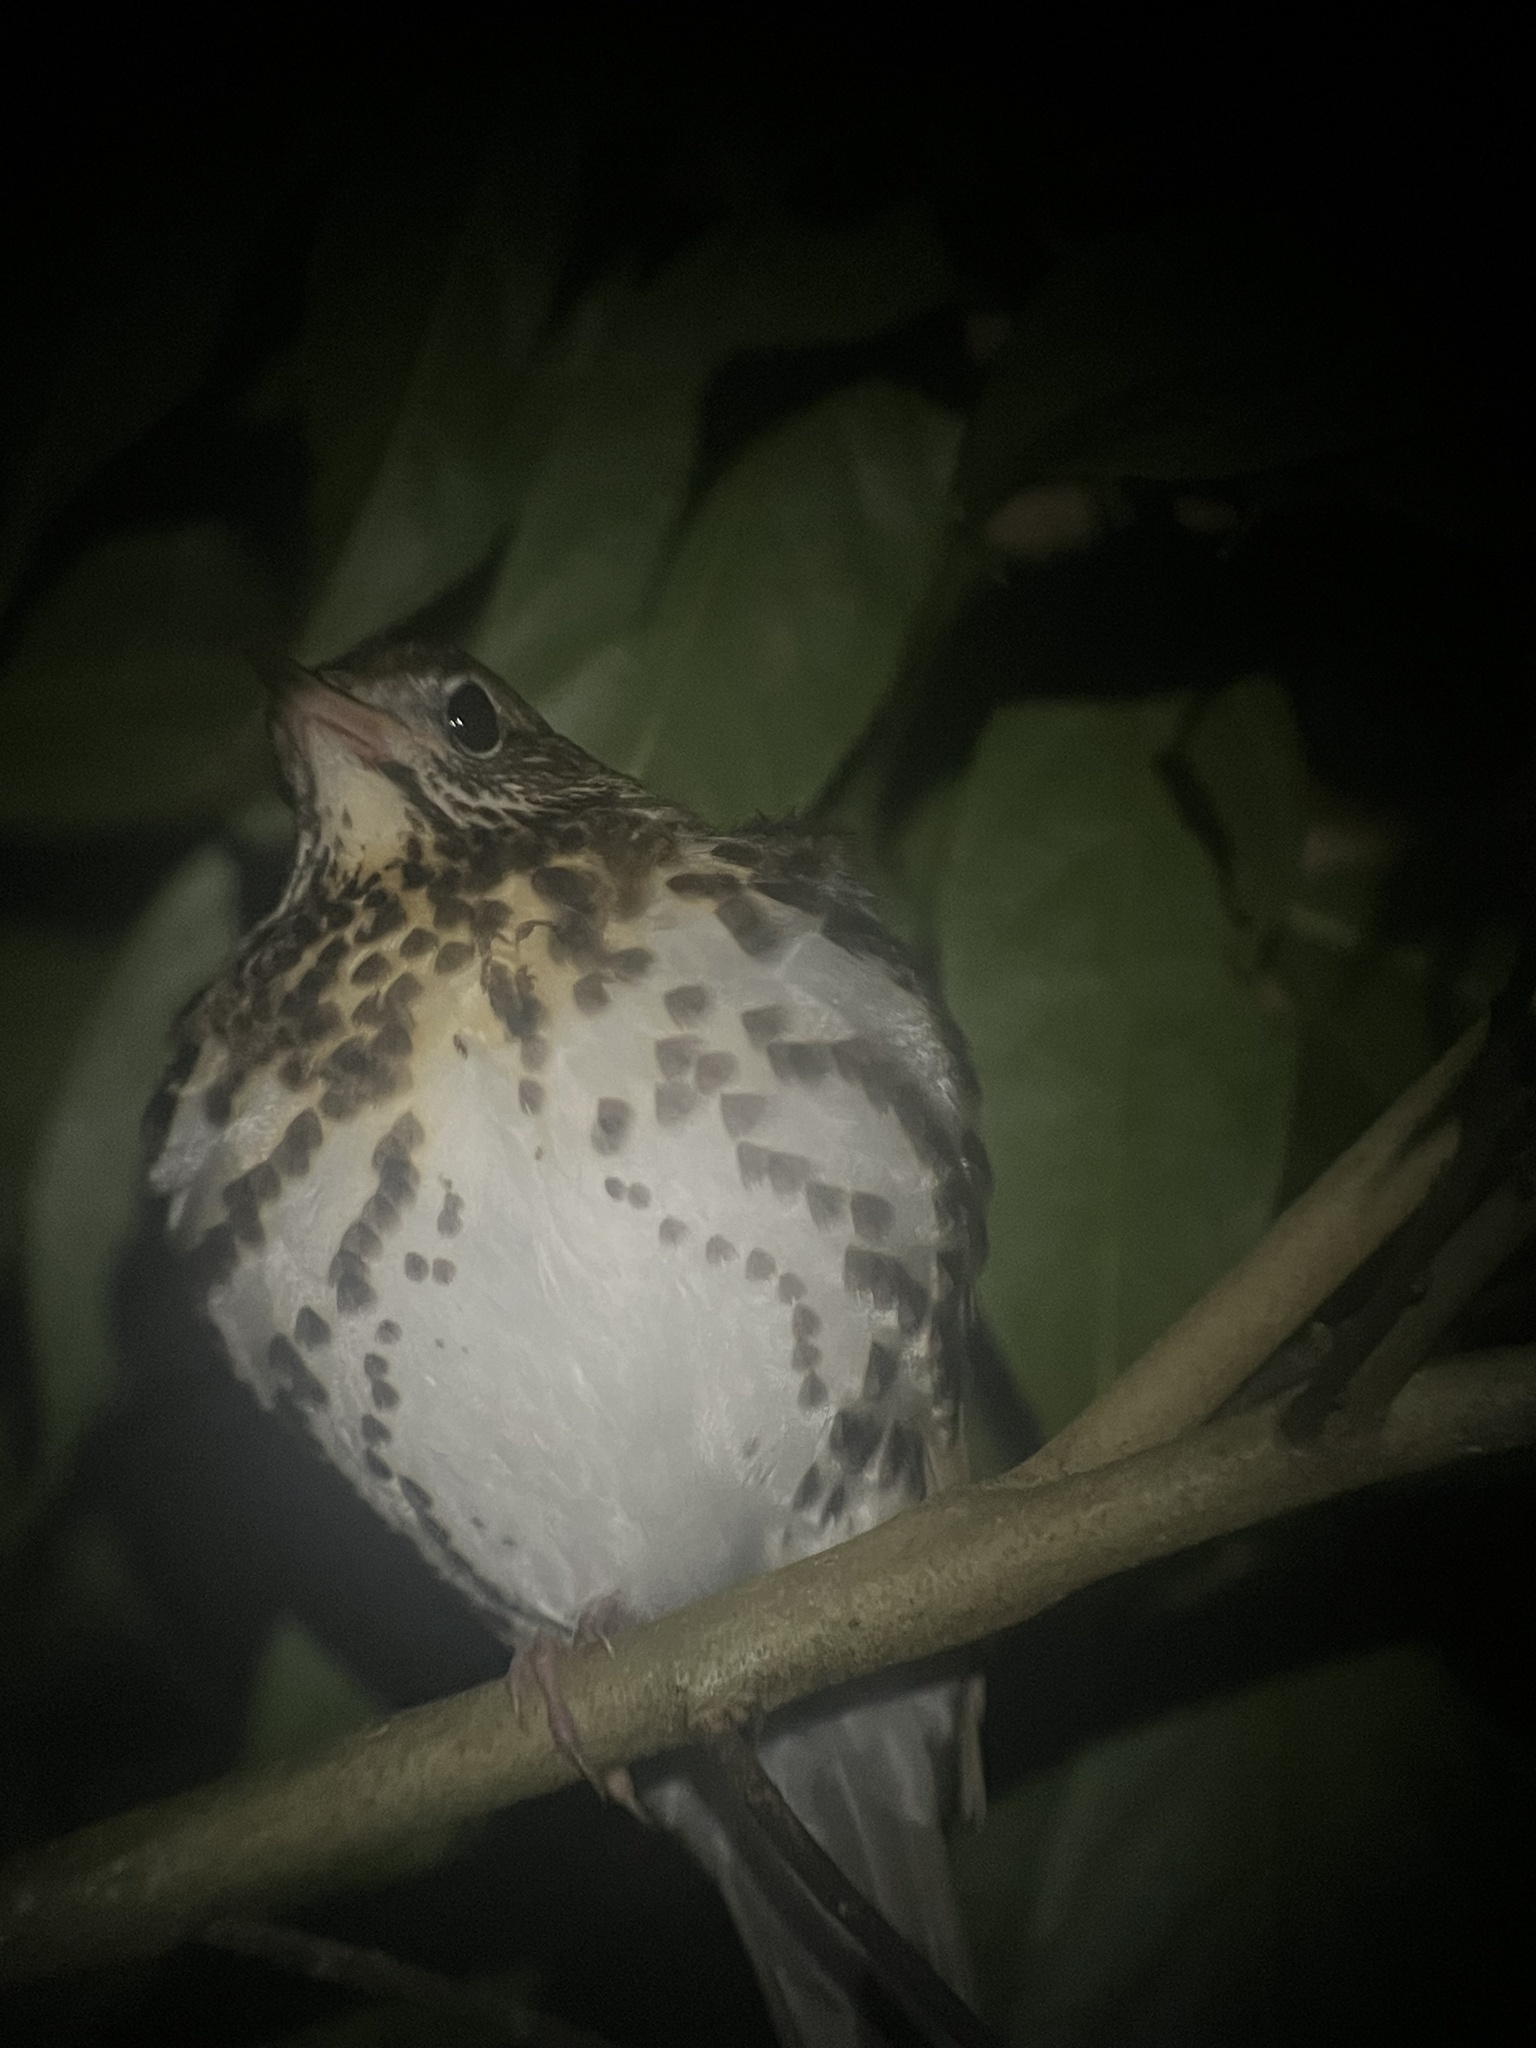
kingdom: Animalia
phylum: Chordata
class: Aves
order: Passeriformes
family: Turdidae
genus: Hylocichla
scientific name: Hylocichla mustelina
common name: Wood thrush
